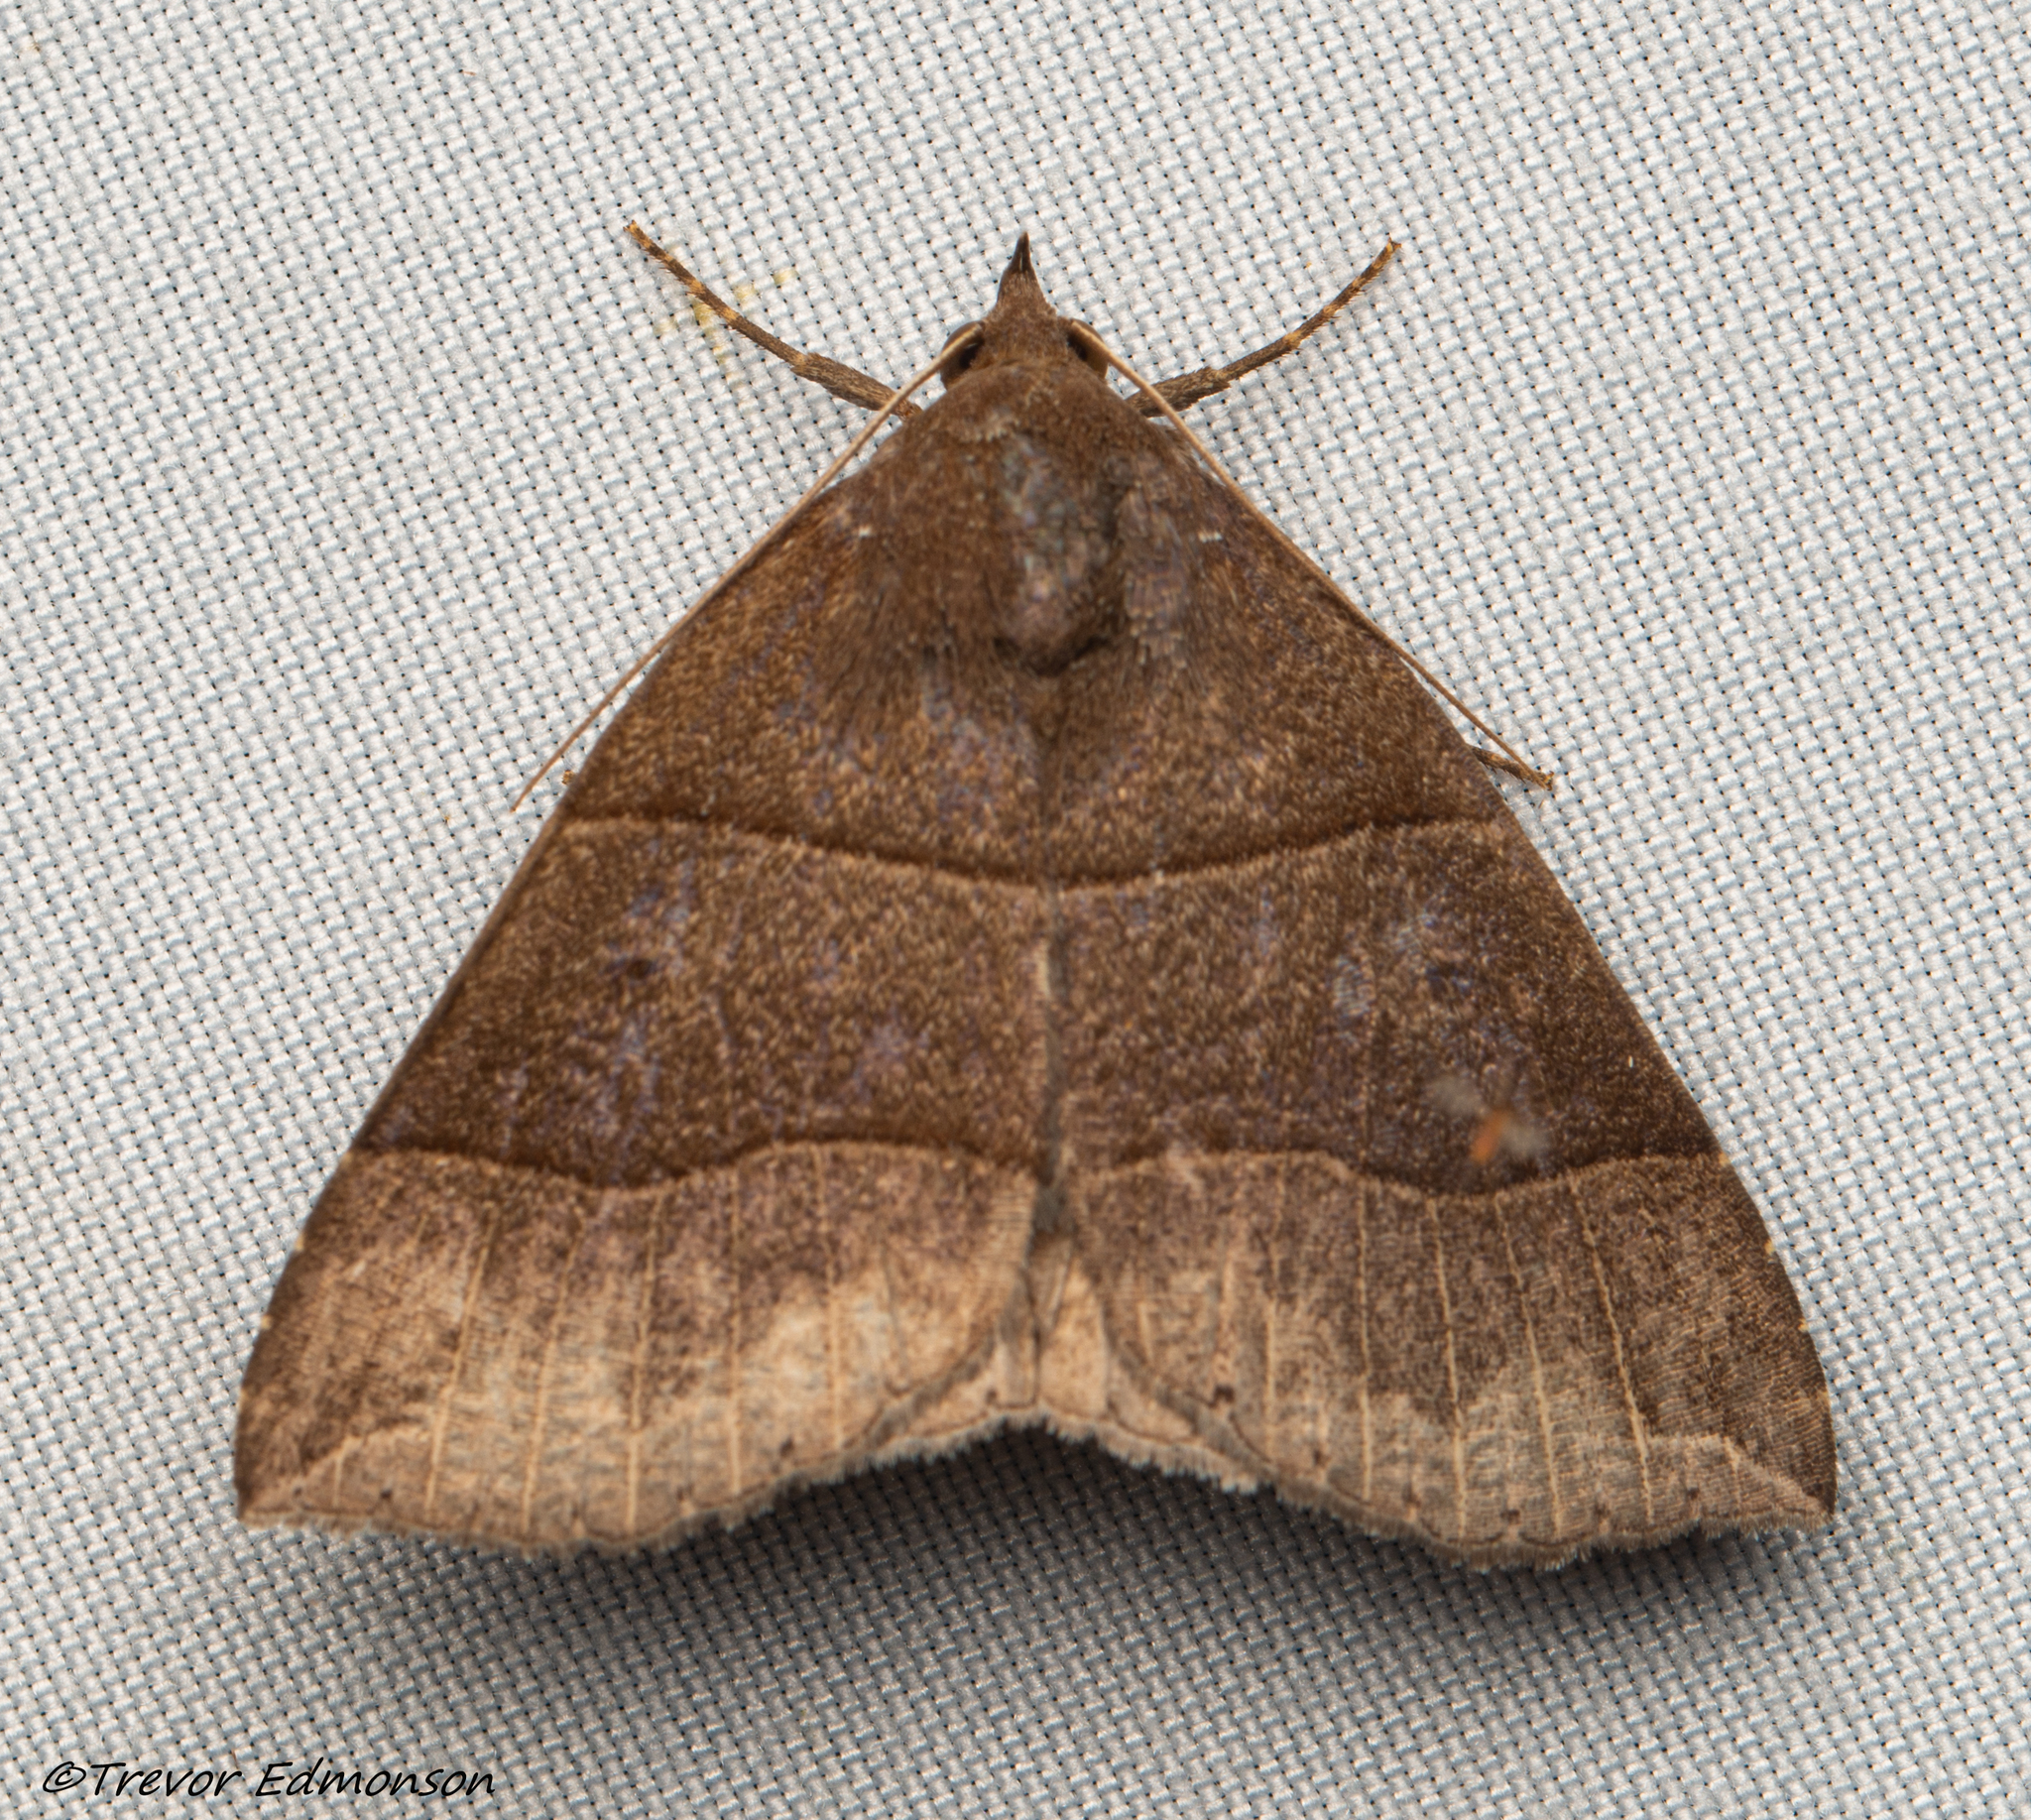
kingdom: Animalia
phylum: Arthropoda
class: Insecta
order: Lepidoptera
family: Erebidae
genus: Parallelia
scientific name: Parallelia bistriaris
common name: Maple looper moth
